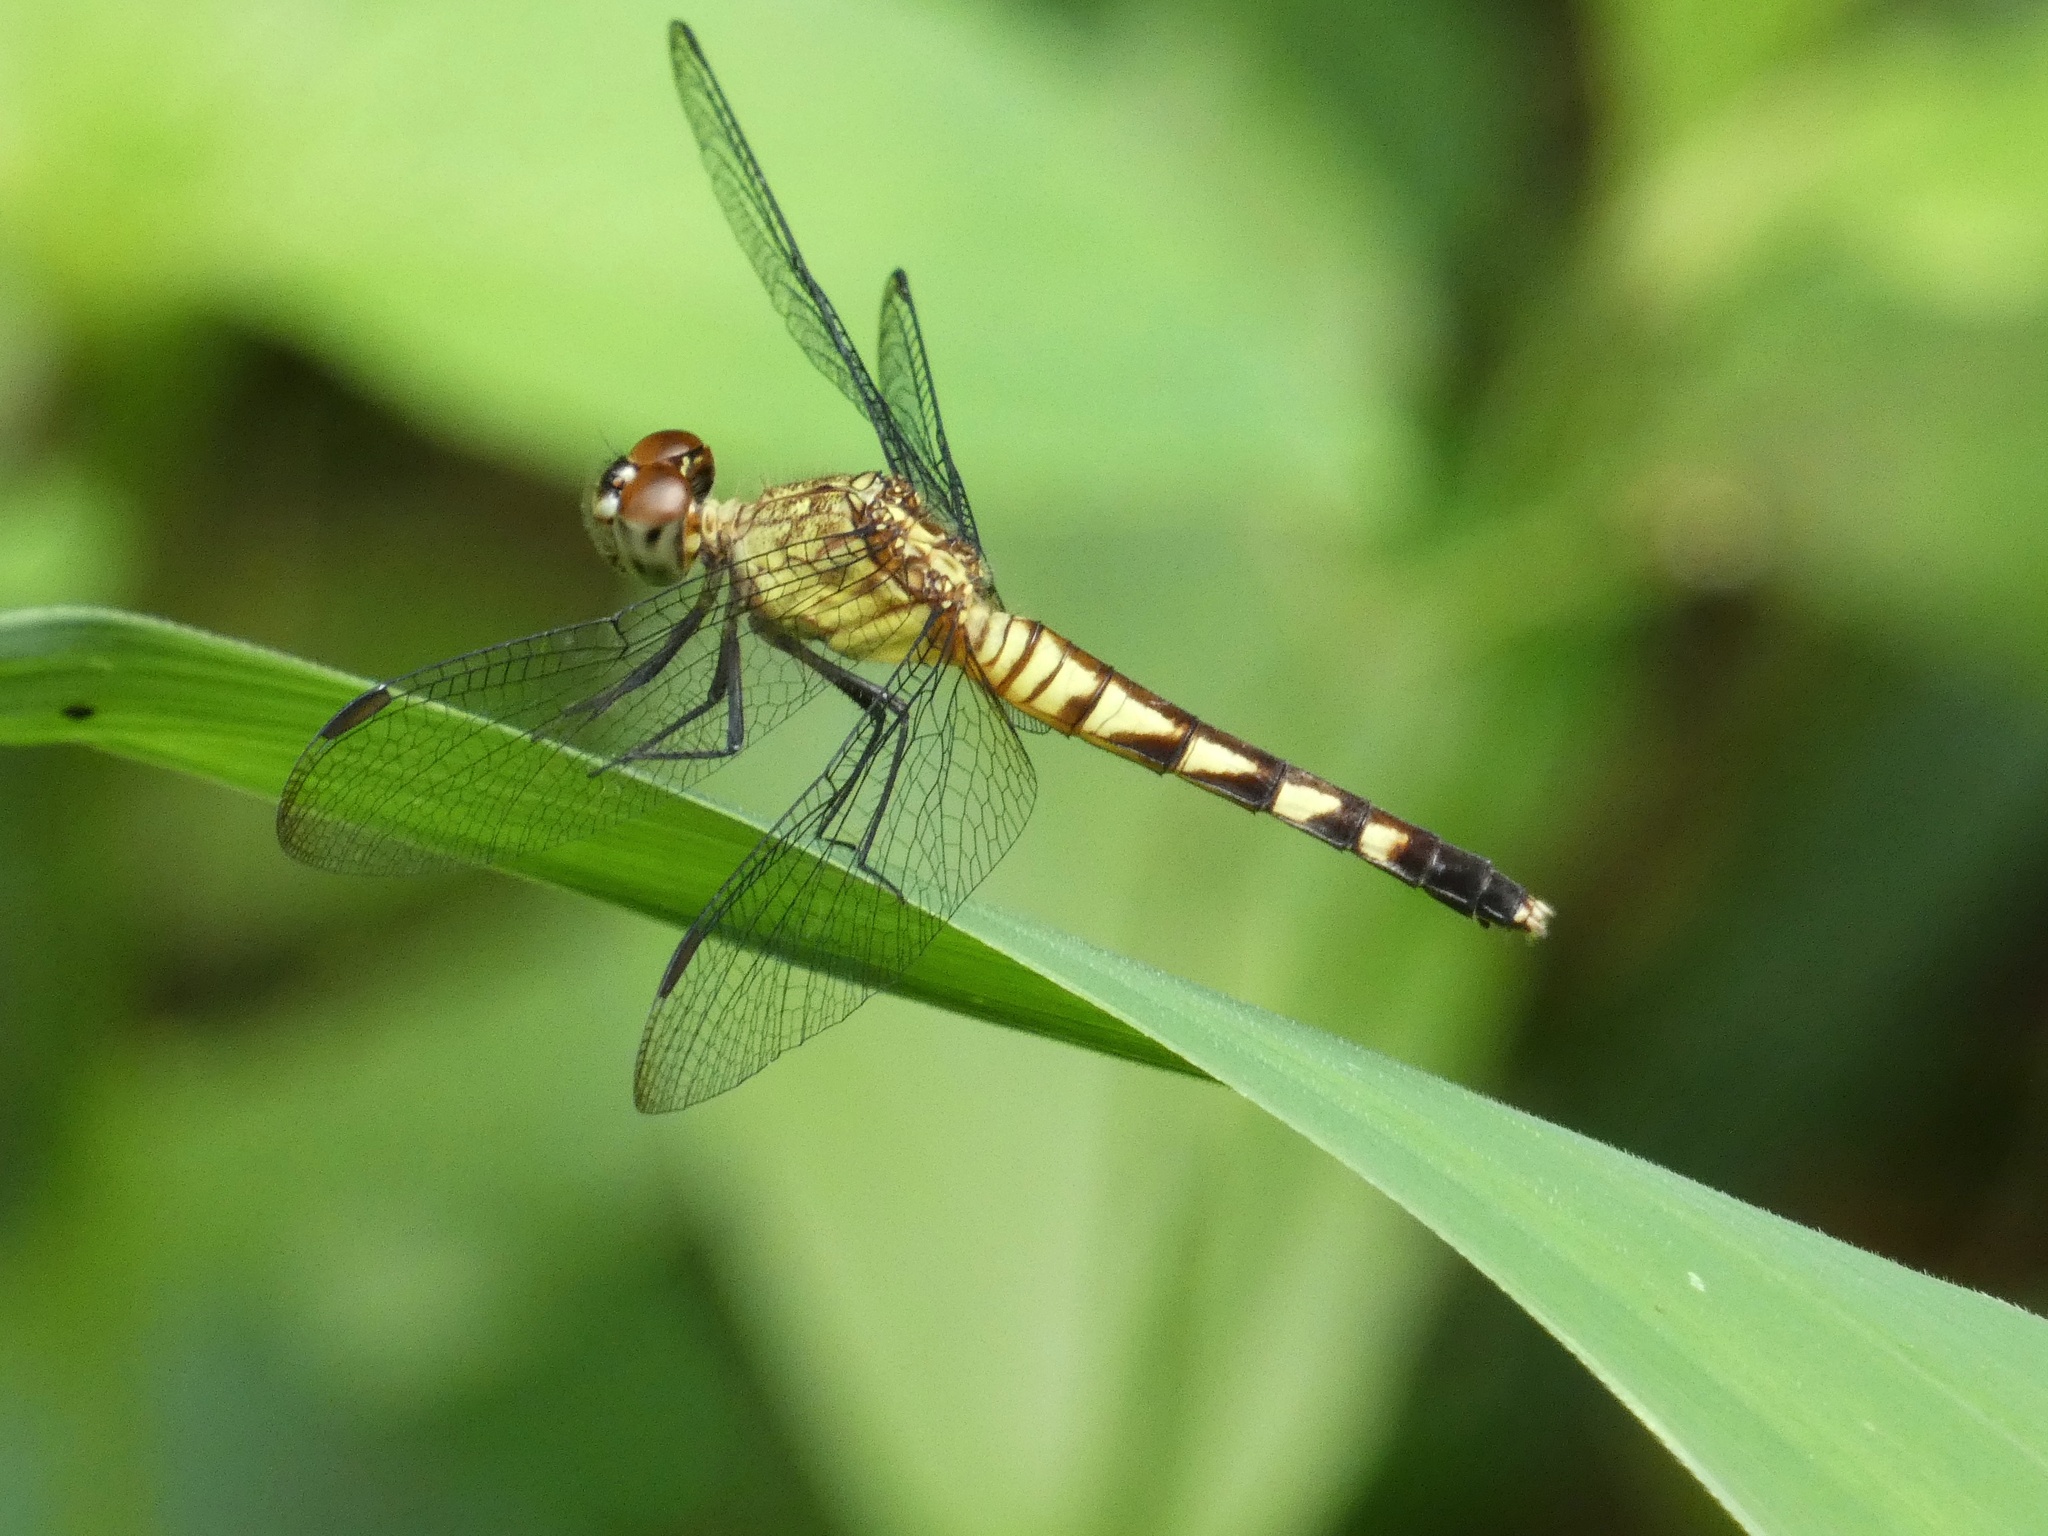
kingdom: Animalia
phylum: Arthropoda
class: Insecta
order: Odonata
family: Libellulidae
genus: Erythrodiplax
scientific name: Erythrodiplax kimminsi
